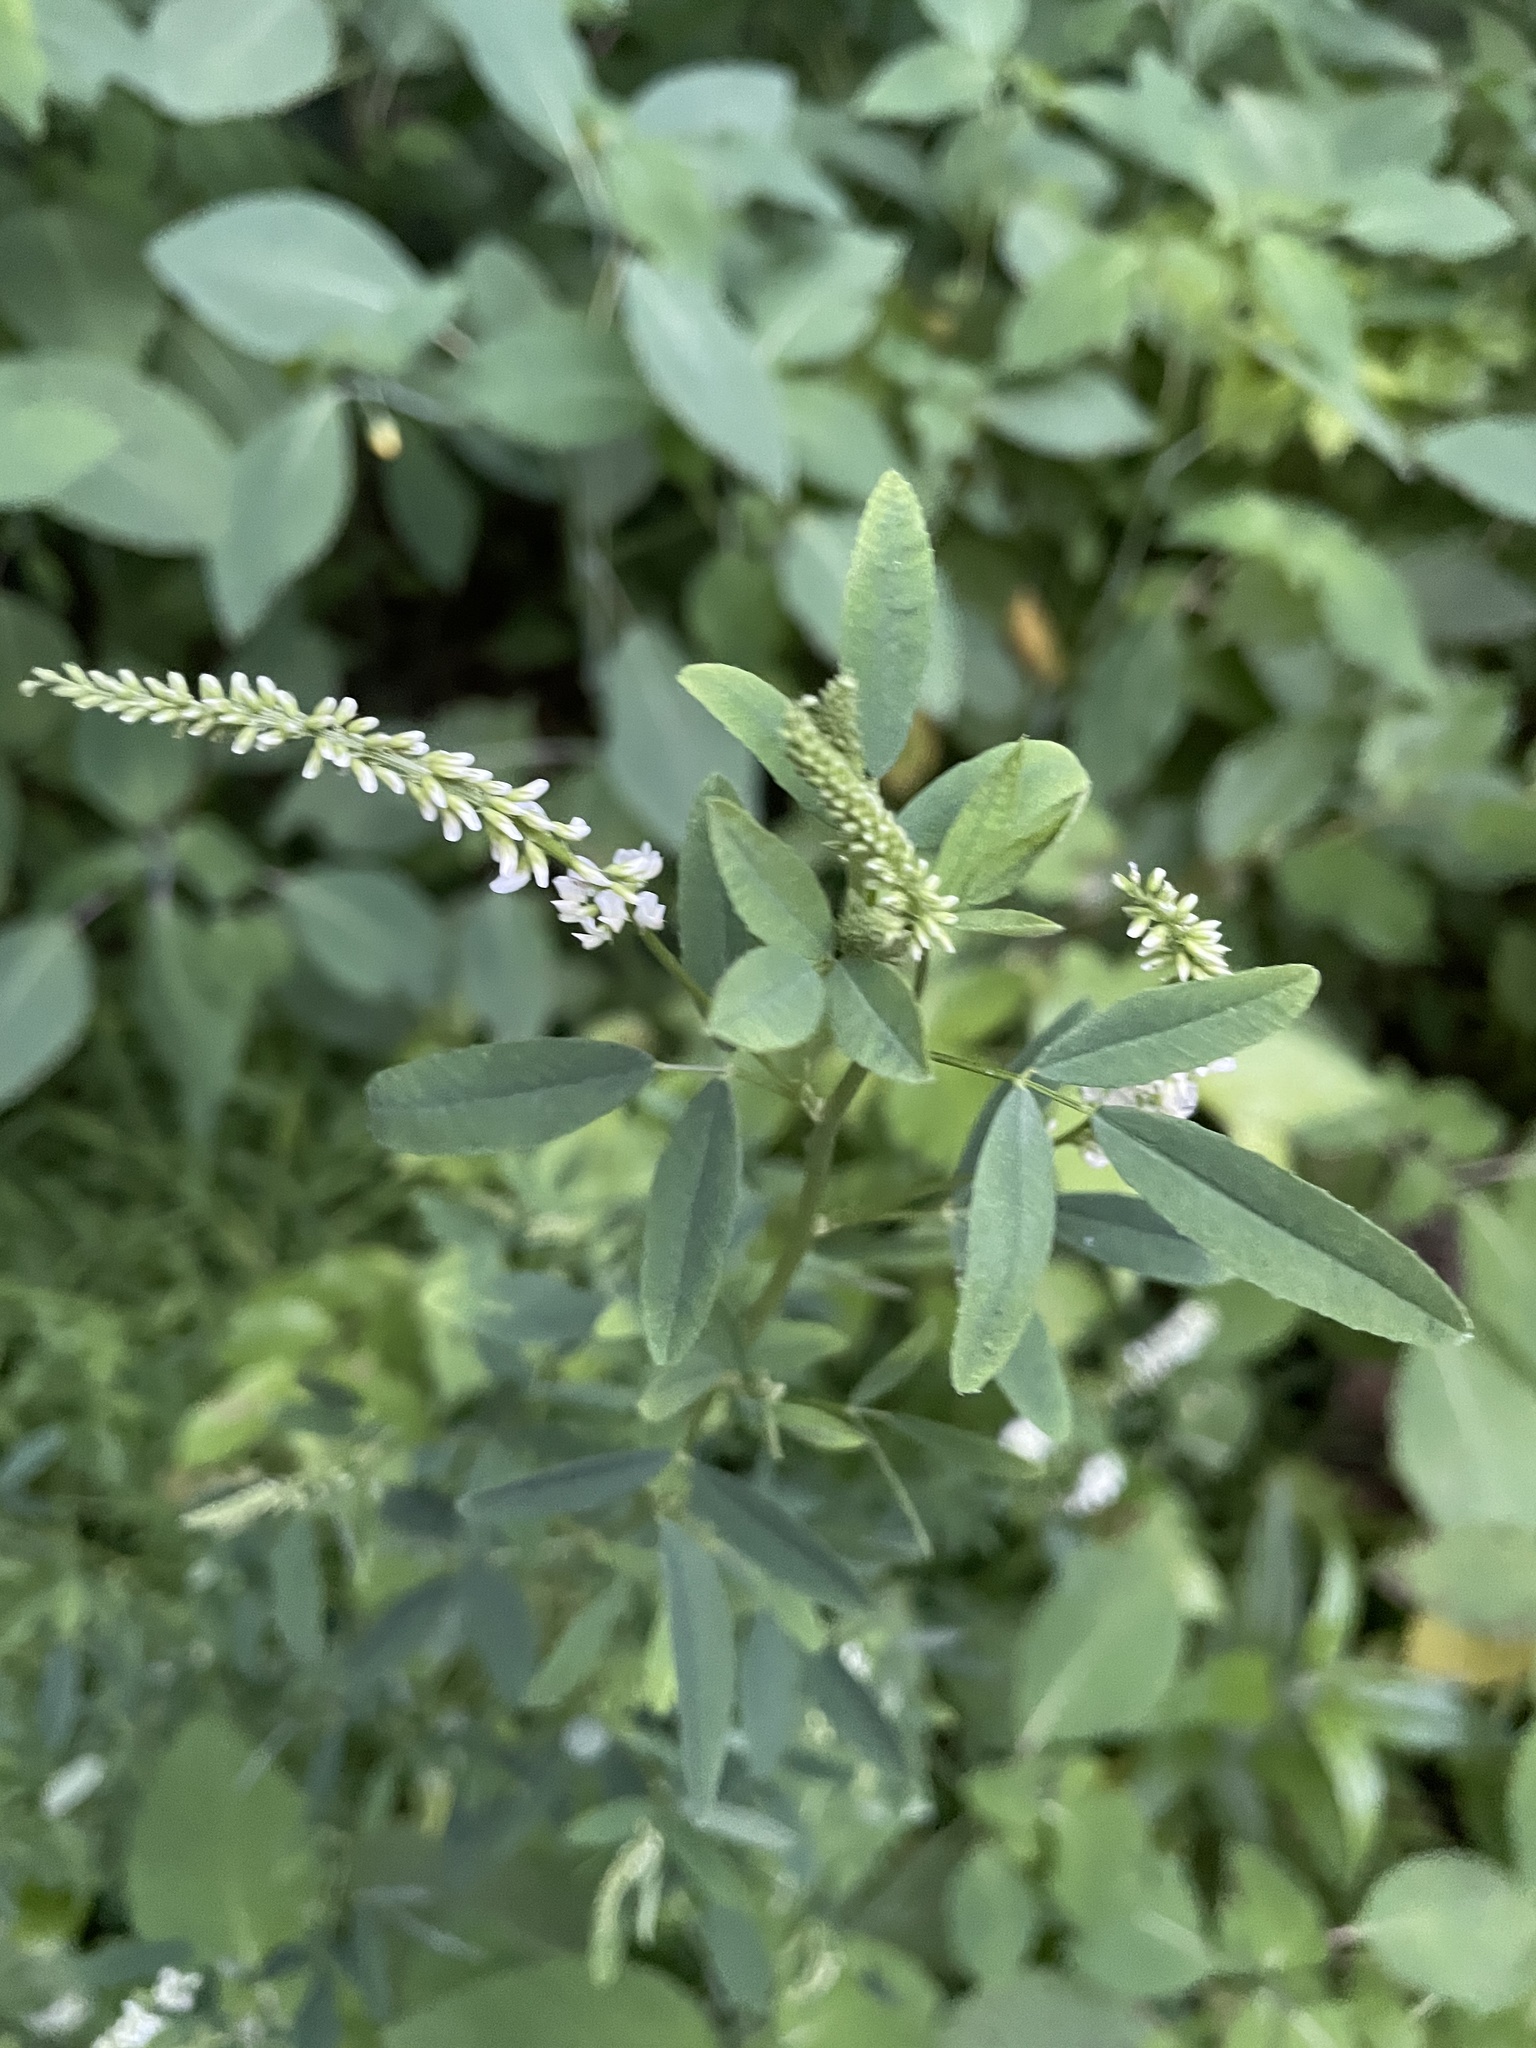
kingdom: Plantae
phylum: Tracheophyta
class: Magnoliopsida
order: Fabales
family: Fabaceae
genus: Melilotus
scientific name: Melilotus albus
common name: White melilot
